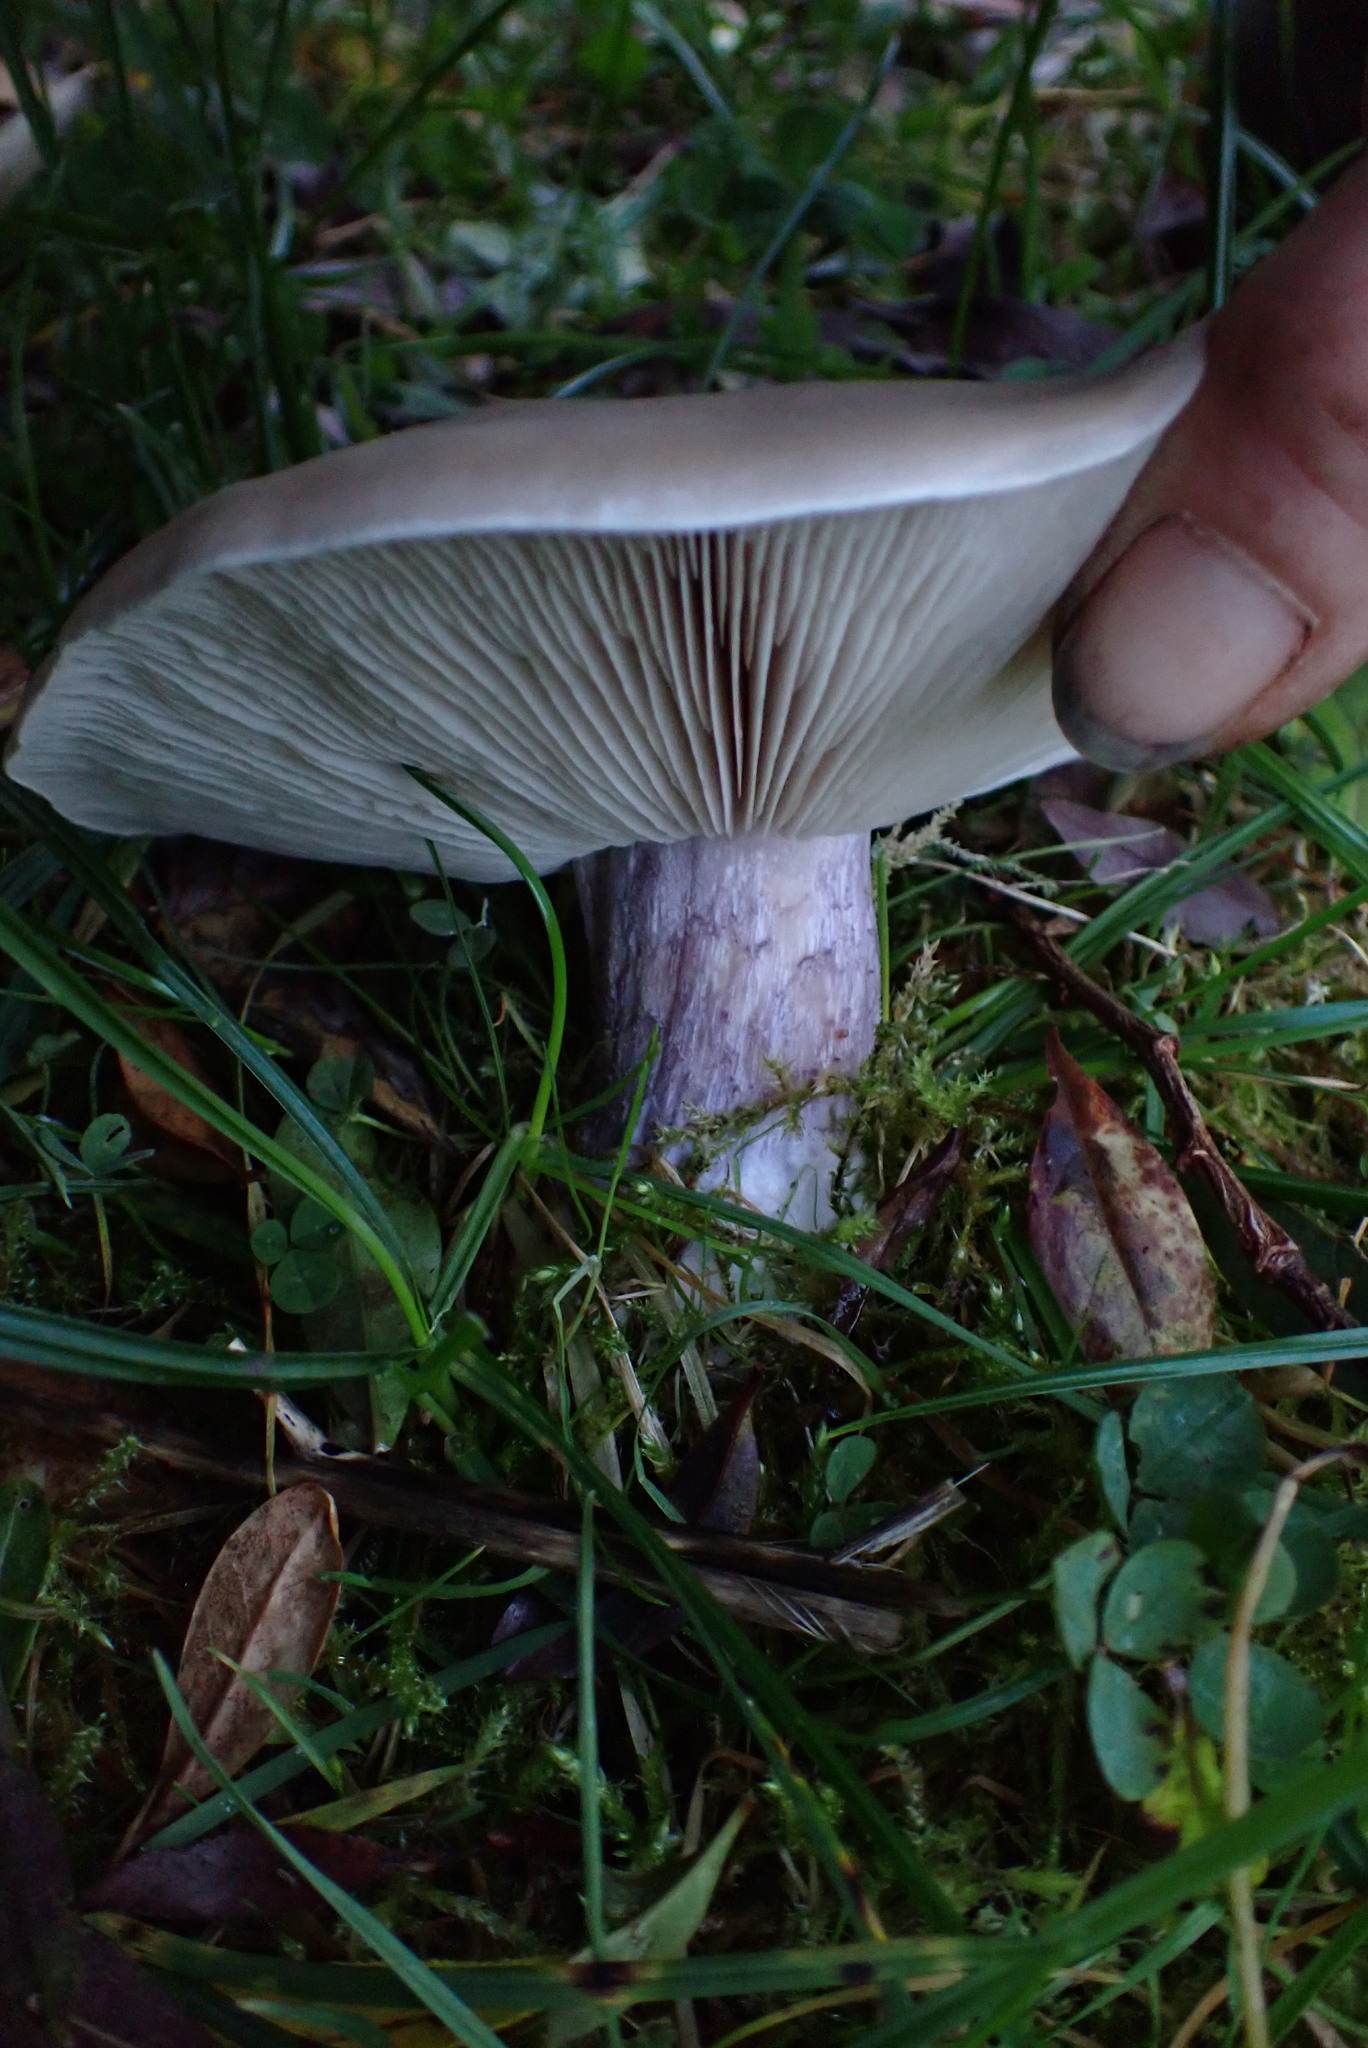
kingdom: Fungi
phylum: Basidiomycota
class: Agaricomycetes
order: Agaricales
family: Omphalotaceae
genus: Collybiopsis
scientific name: Collybiopsis peronata
